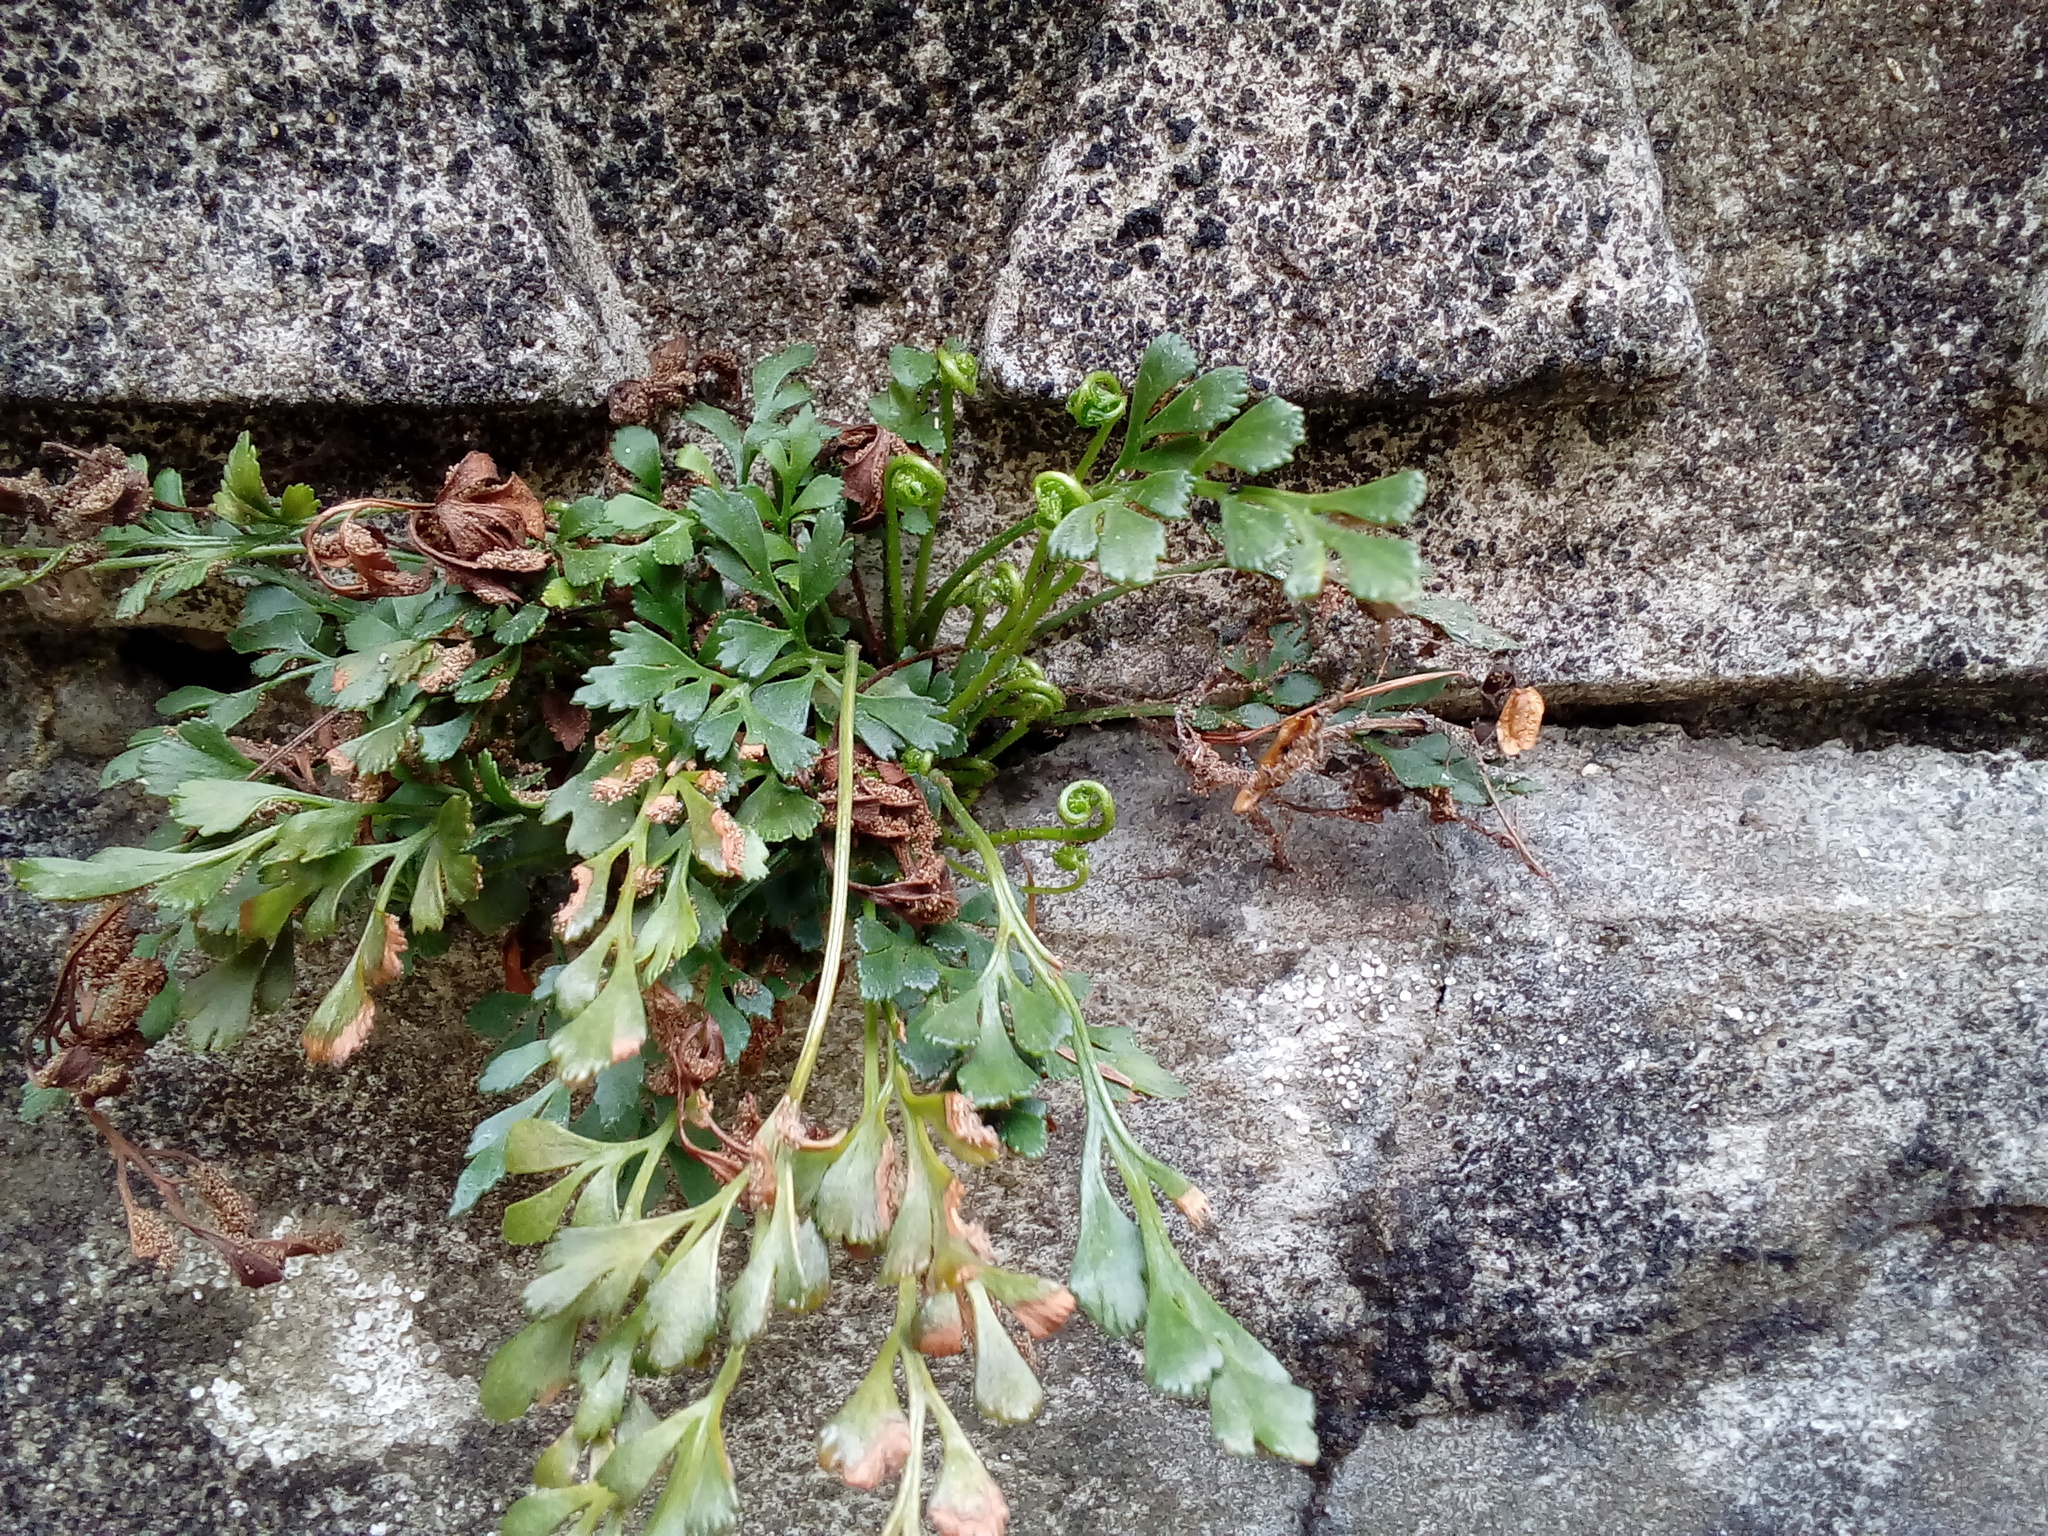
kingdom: Plantae
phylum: Tracheophyta
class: Polypodiopsida
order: Polypodiales
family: Aspleniaceae
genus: Asplenium
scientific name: Asplenium ruta-muraria
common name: Wall-rue
